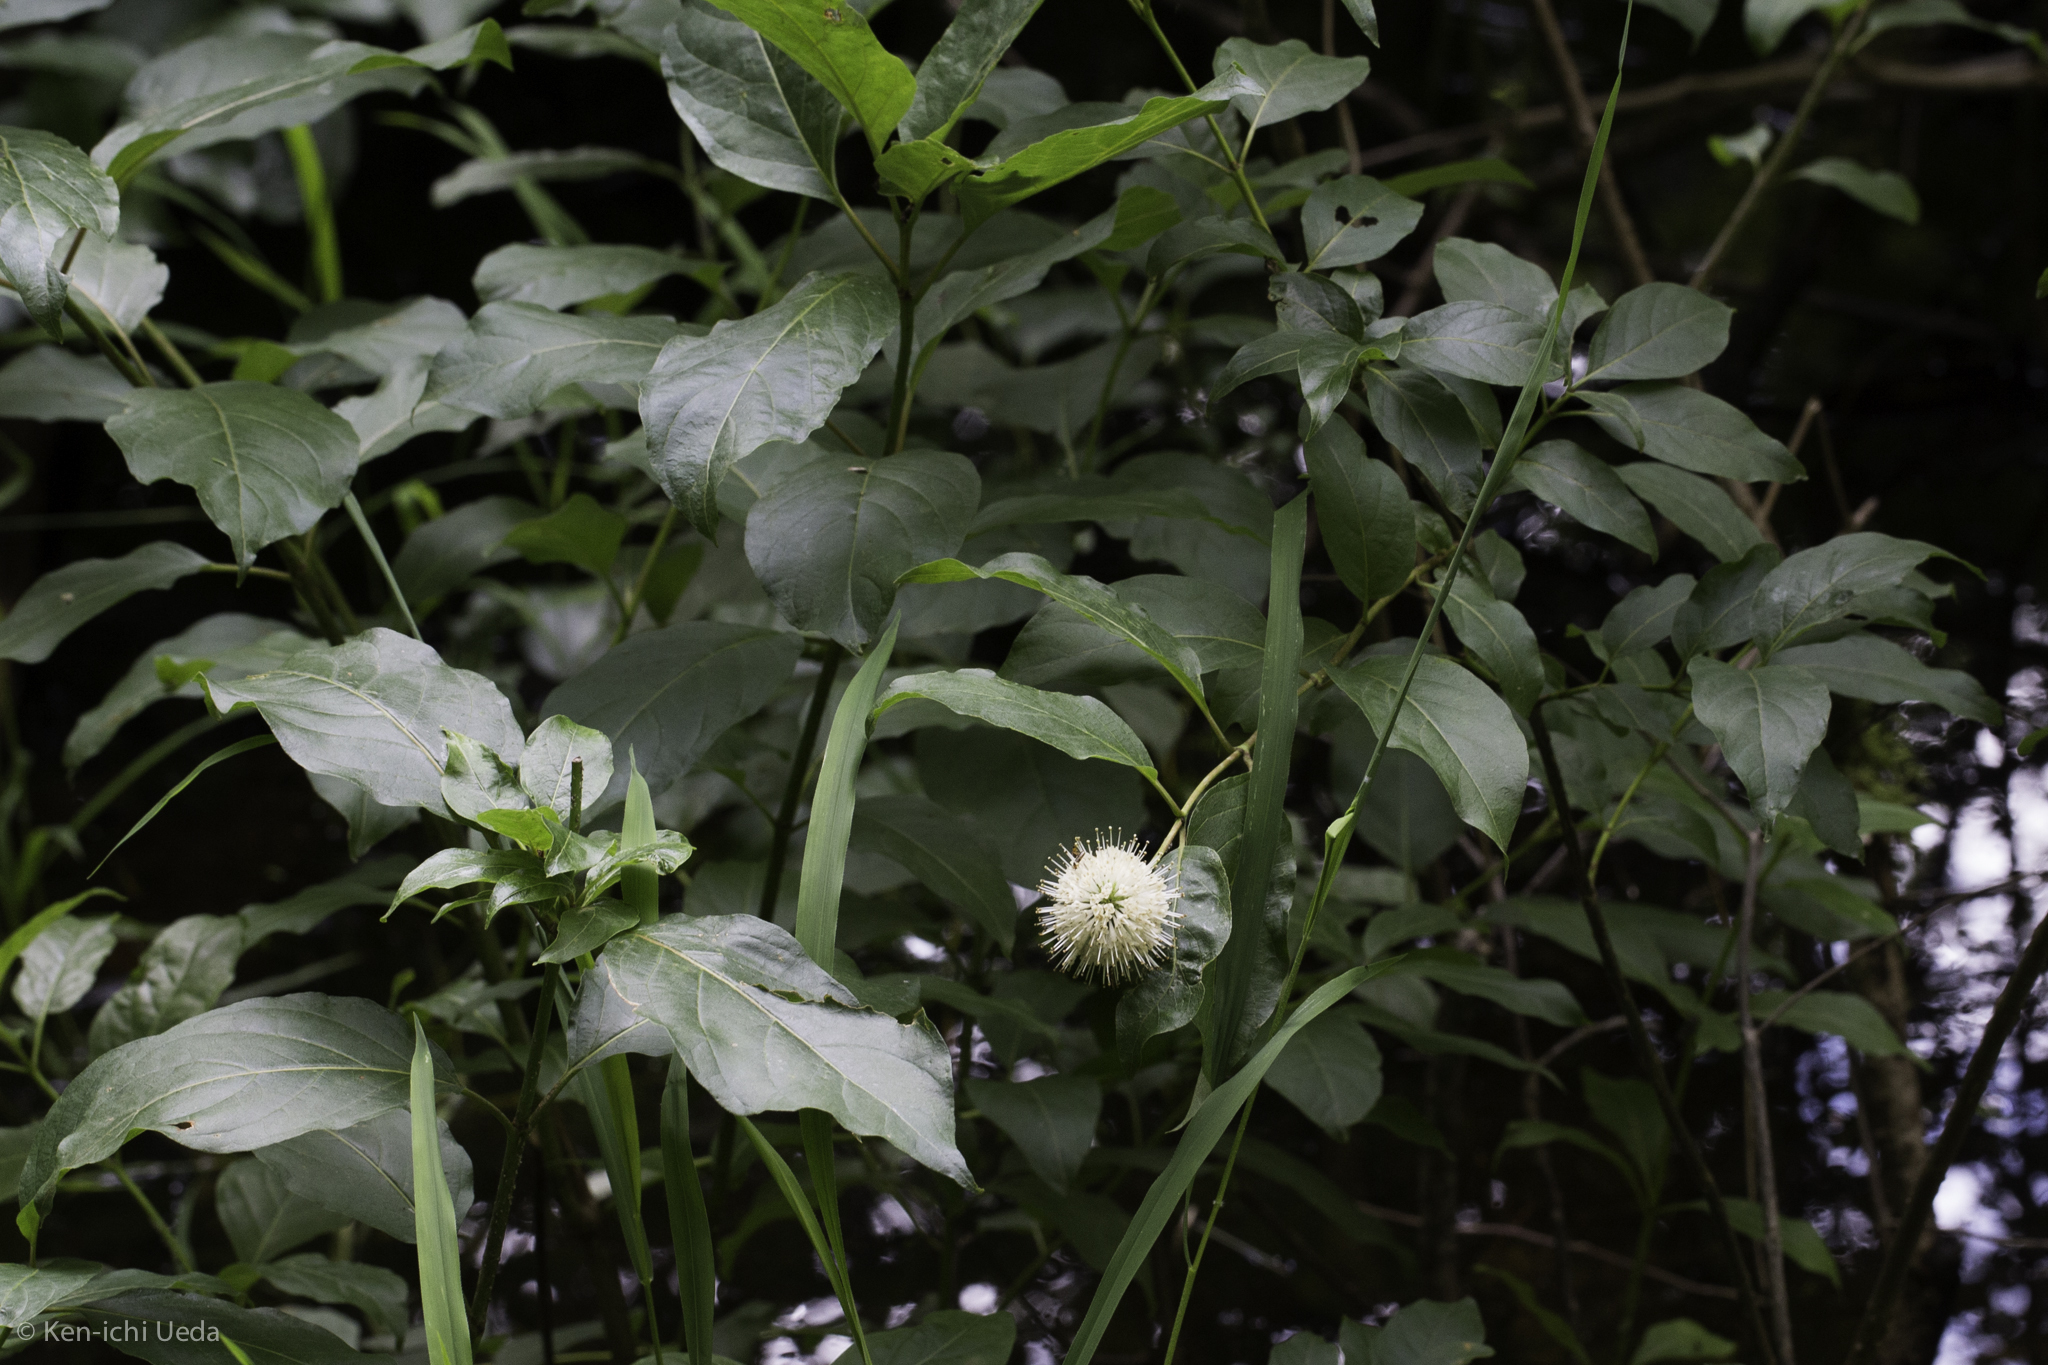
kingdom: Plantae
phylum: Tracheophyta
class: Magnoliopsida
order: Gentianales
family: Rubiaceae
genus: Cephalanthus
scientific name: Cephalanthus occidentalis
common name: Button-willow
